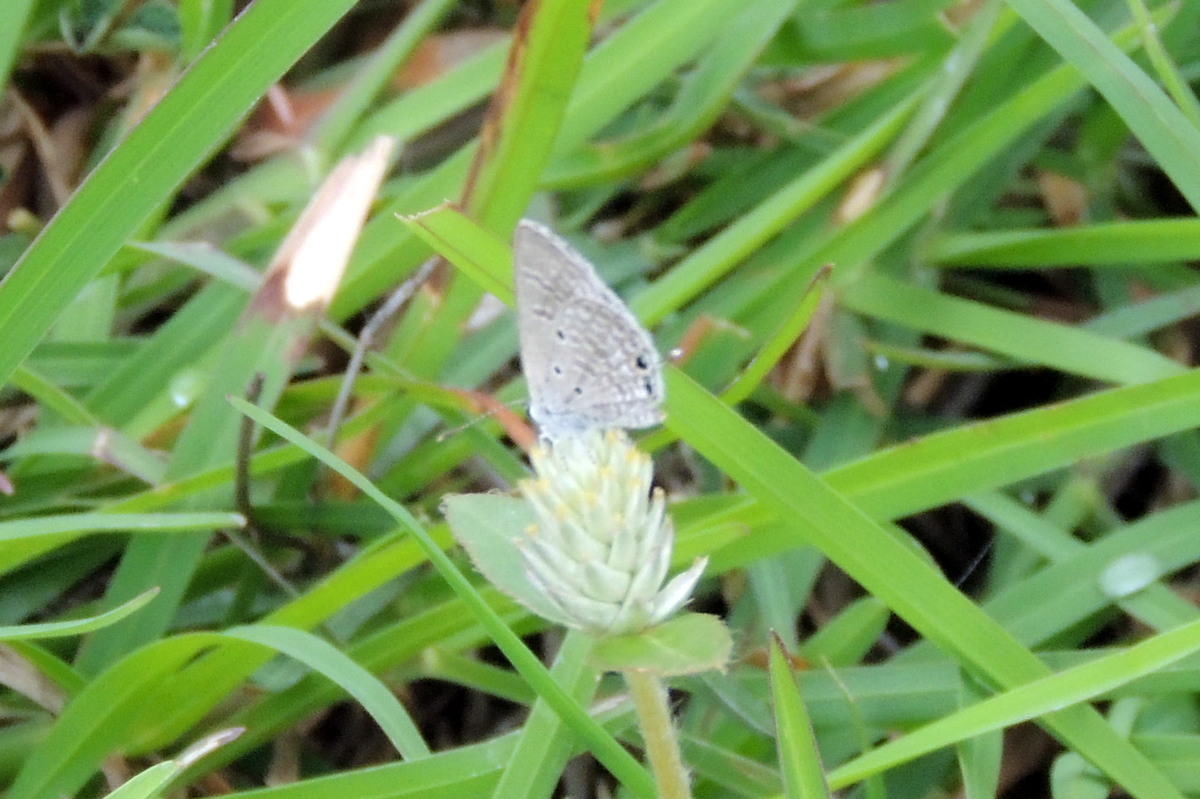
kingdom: Animalia
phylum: Arthropoda
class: Insecta
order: Lepidoptera
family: Lycaenidae
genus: Luthrodes
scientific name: Luthrodes pandava
